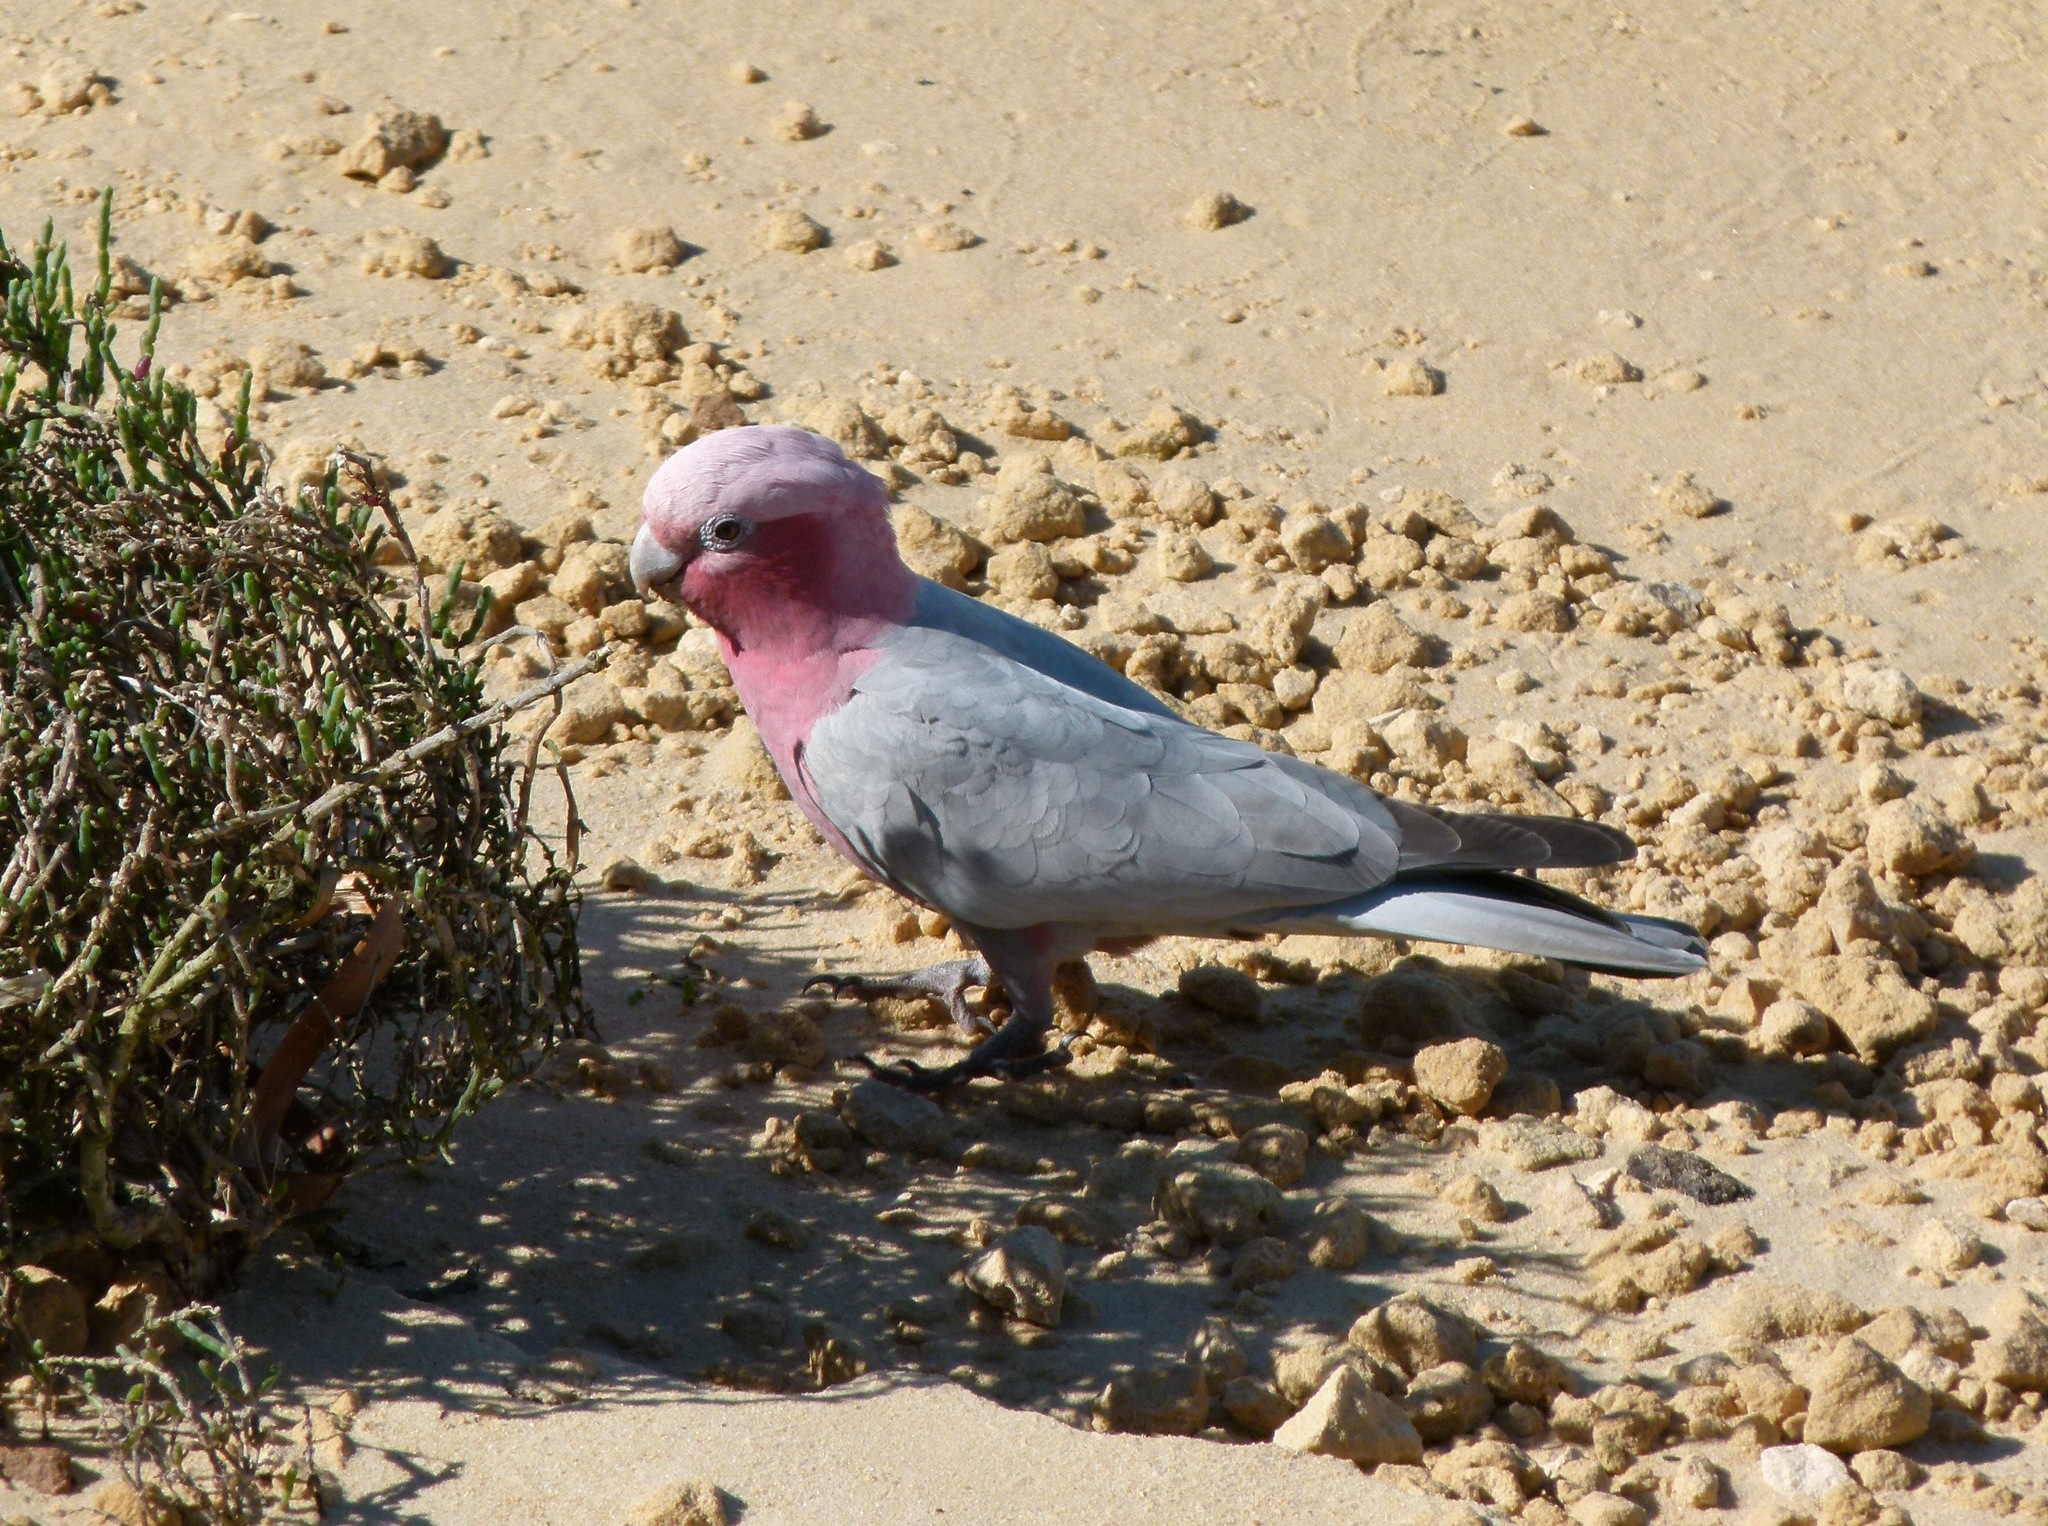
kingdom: Animalia
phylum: Chordata
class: Aves
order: Psittaciformes
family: Psittacidae
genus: Eolophus
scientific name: Eolophus roseicapilla
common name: Galah
